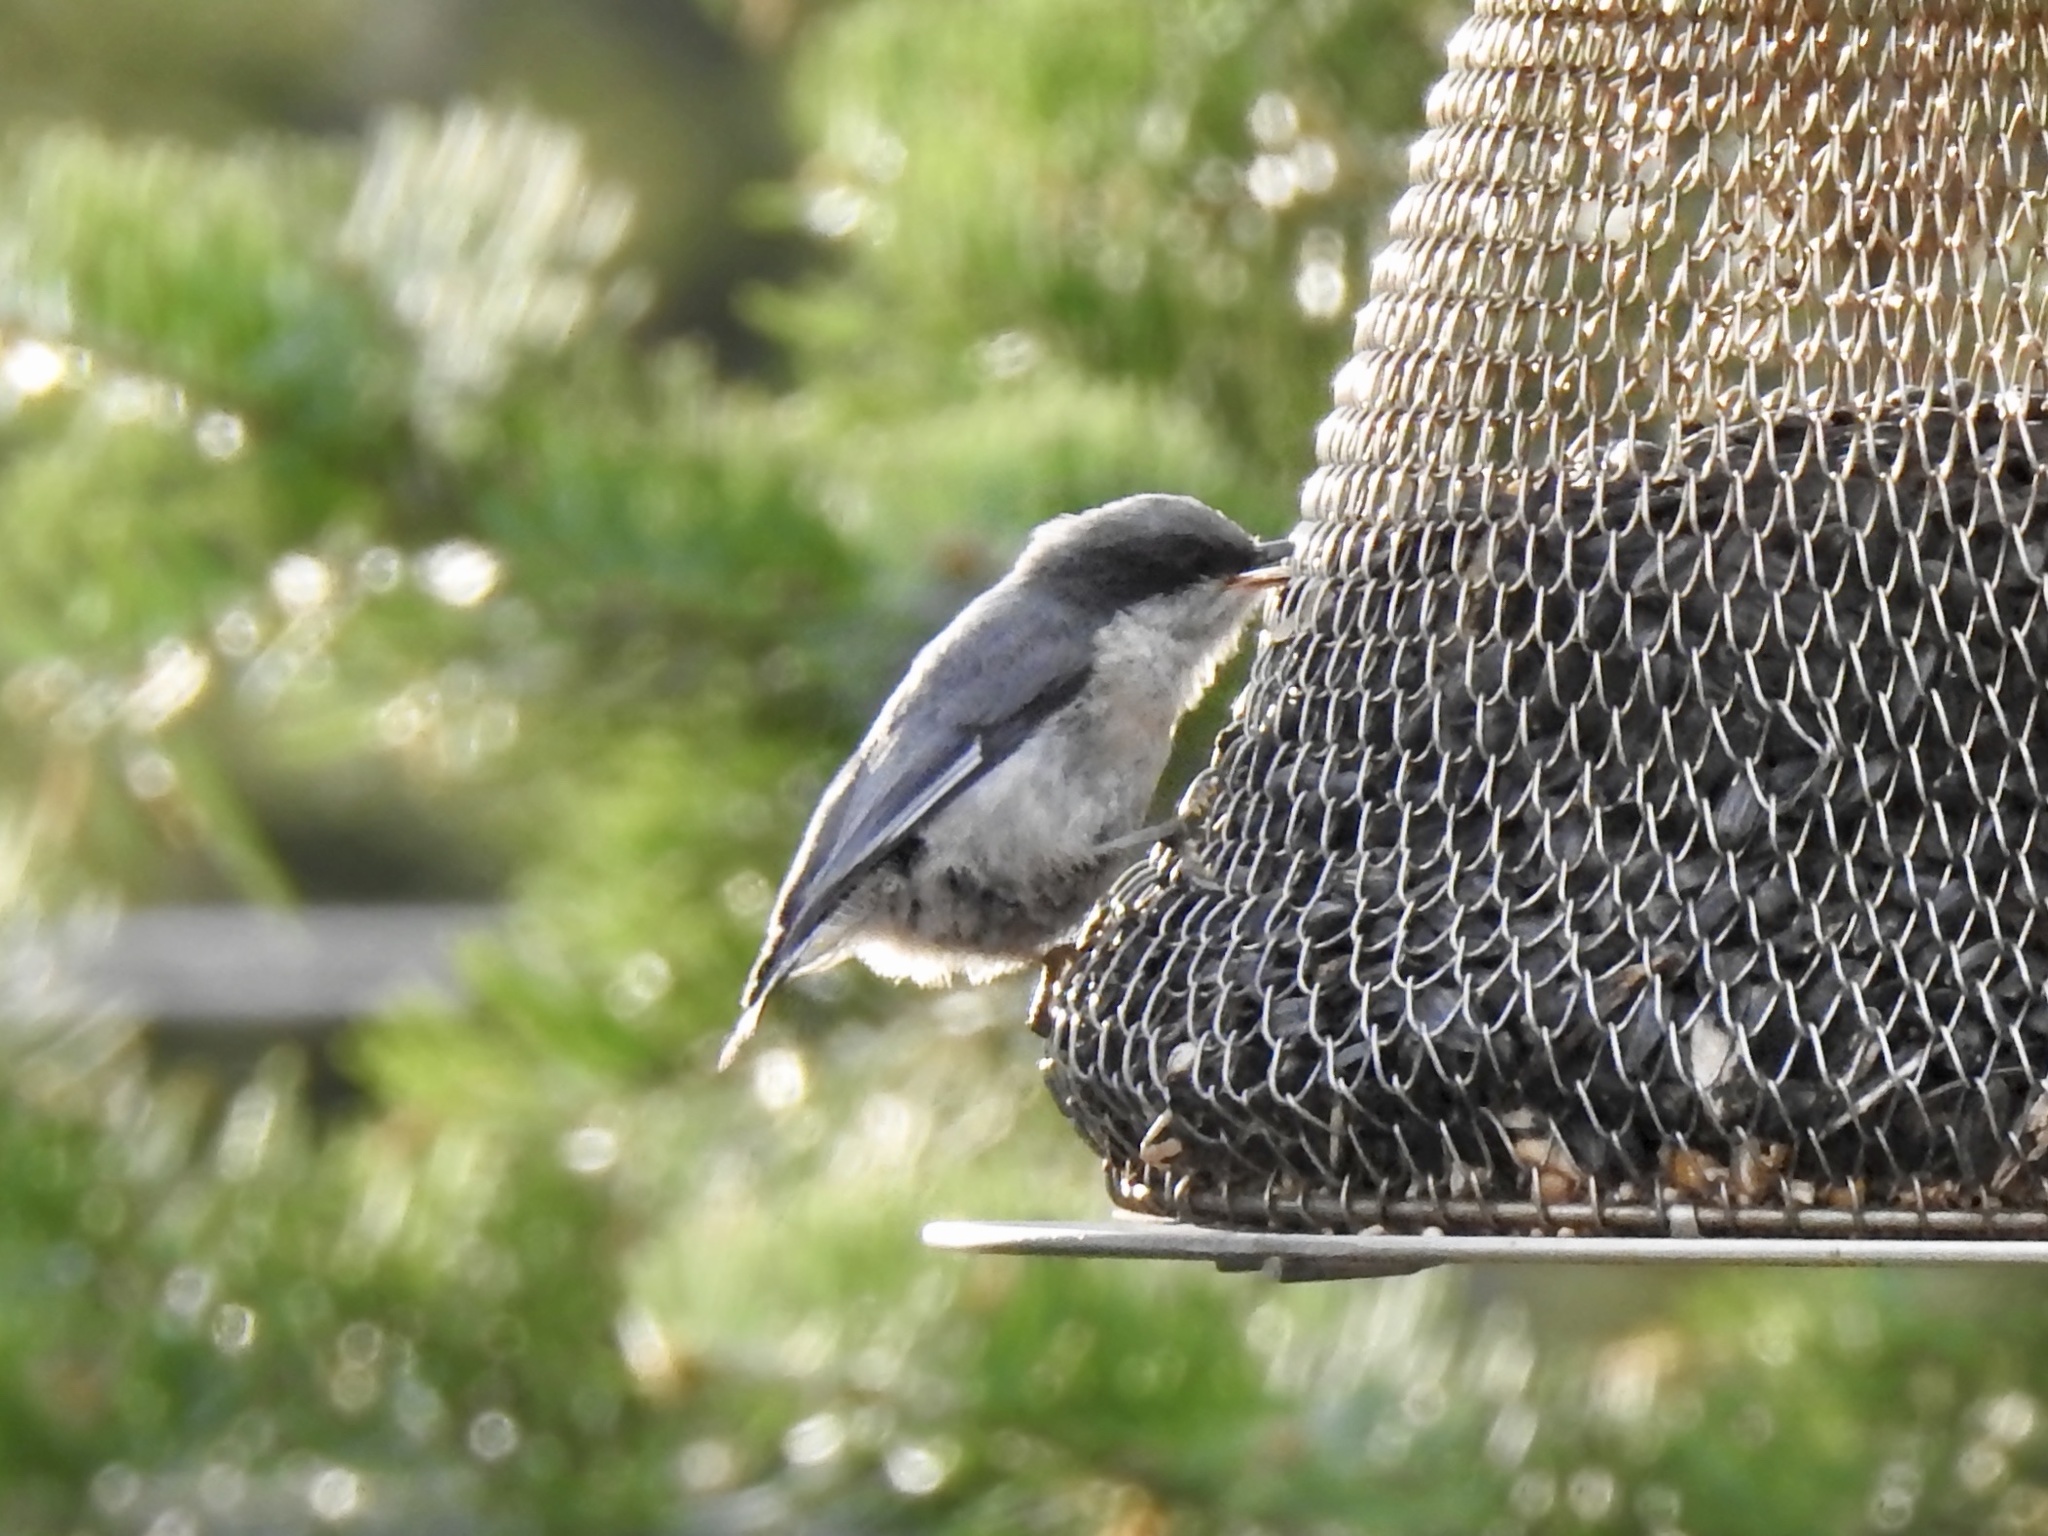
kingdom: Animalia
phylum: Chordata
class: Aves
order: Passeriformes
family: Sittidae
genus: Sitta
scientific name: Sitta pygmaea
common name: Pygmy nuthatch
